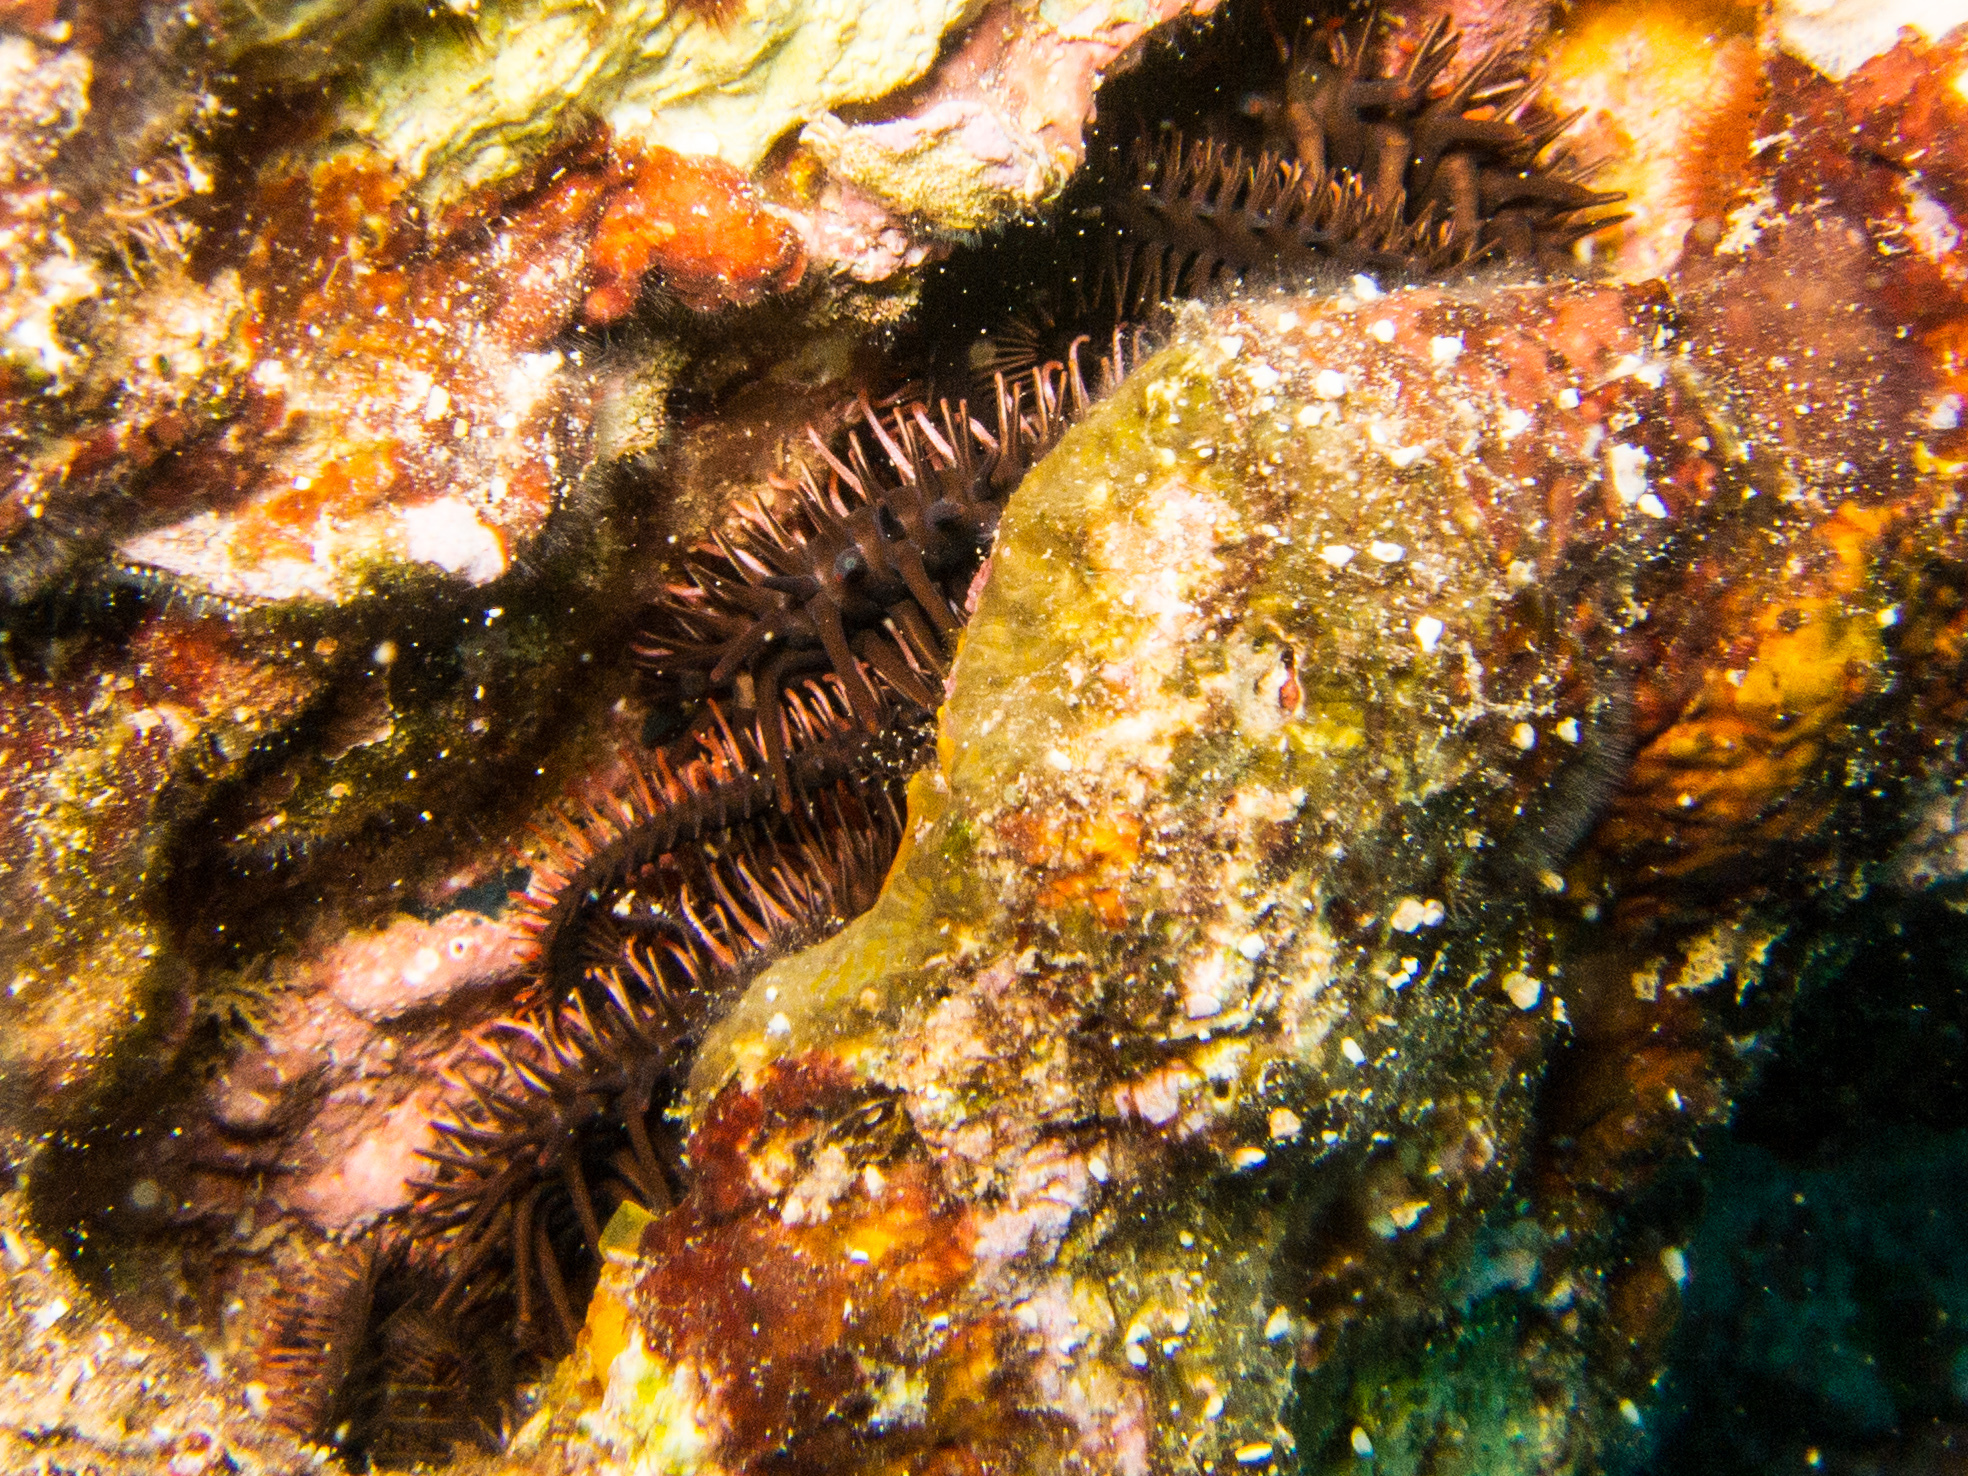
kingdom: Animalia
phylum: Echinodermata
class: Ophiuroidea
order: Ophiacanthida
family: Ophiocomidae
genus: Ophiocoma
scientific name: Ophiocoma erinaceus
